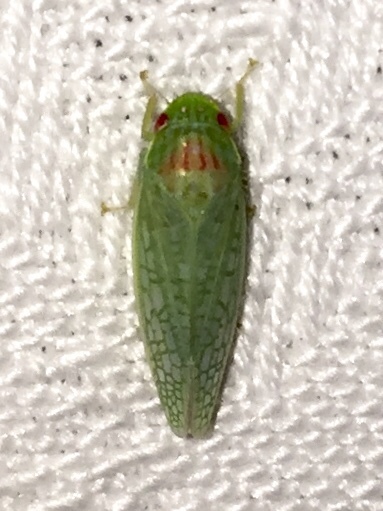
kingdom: Animalia
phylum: Arthropoda
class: Insecta
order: Hemiptera
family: Cicadellidae
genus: Gyponana
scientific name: Gyponana octolineata
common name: Eight-lined leafhopper
